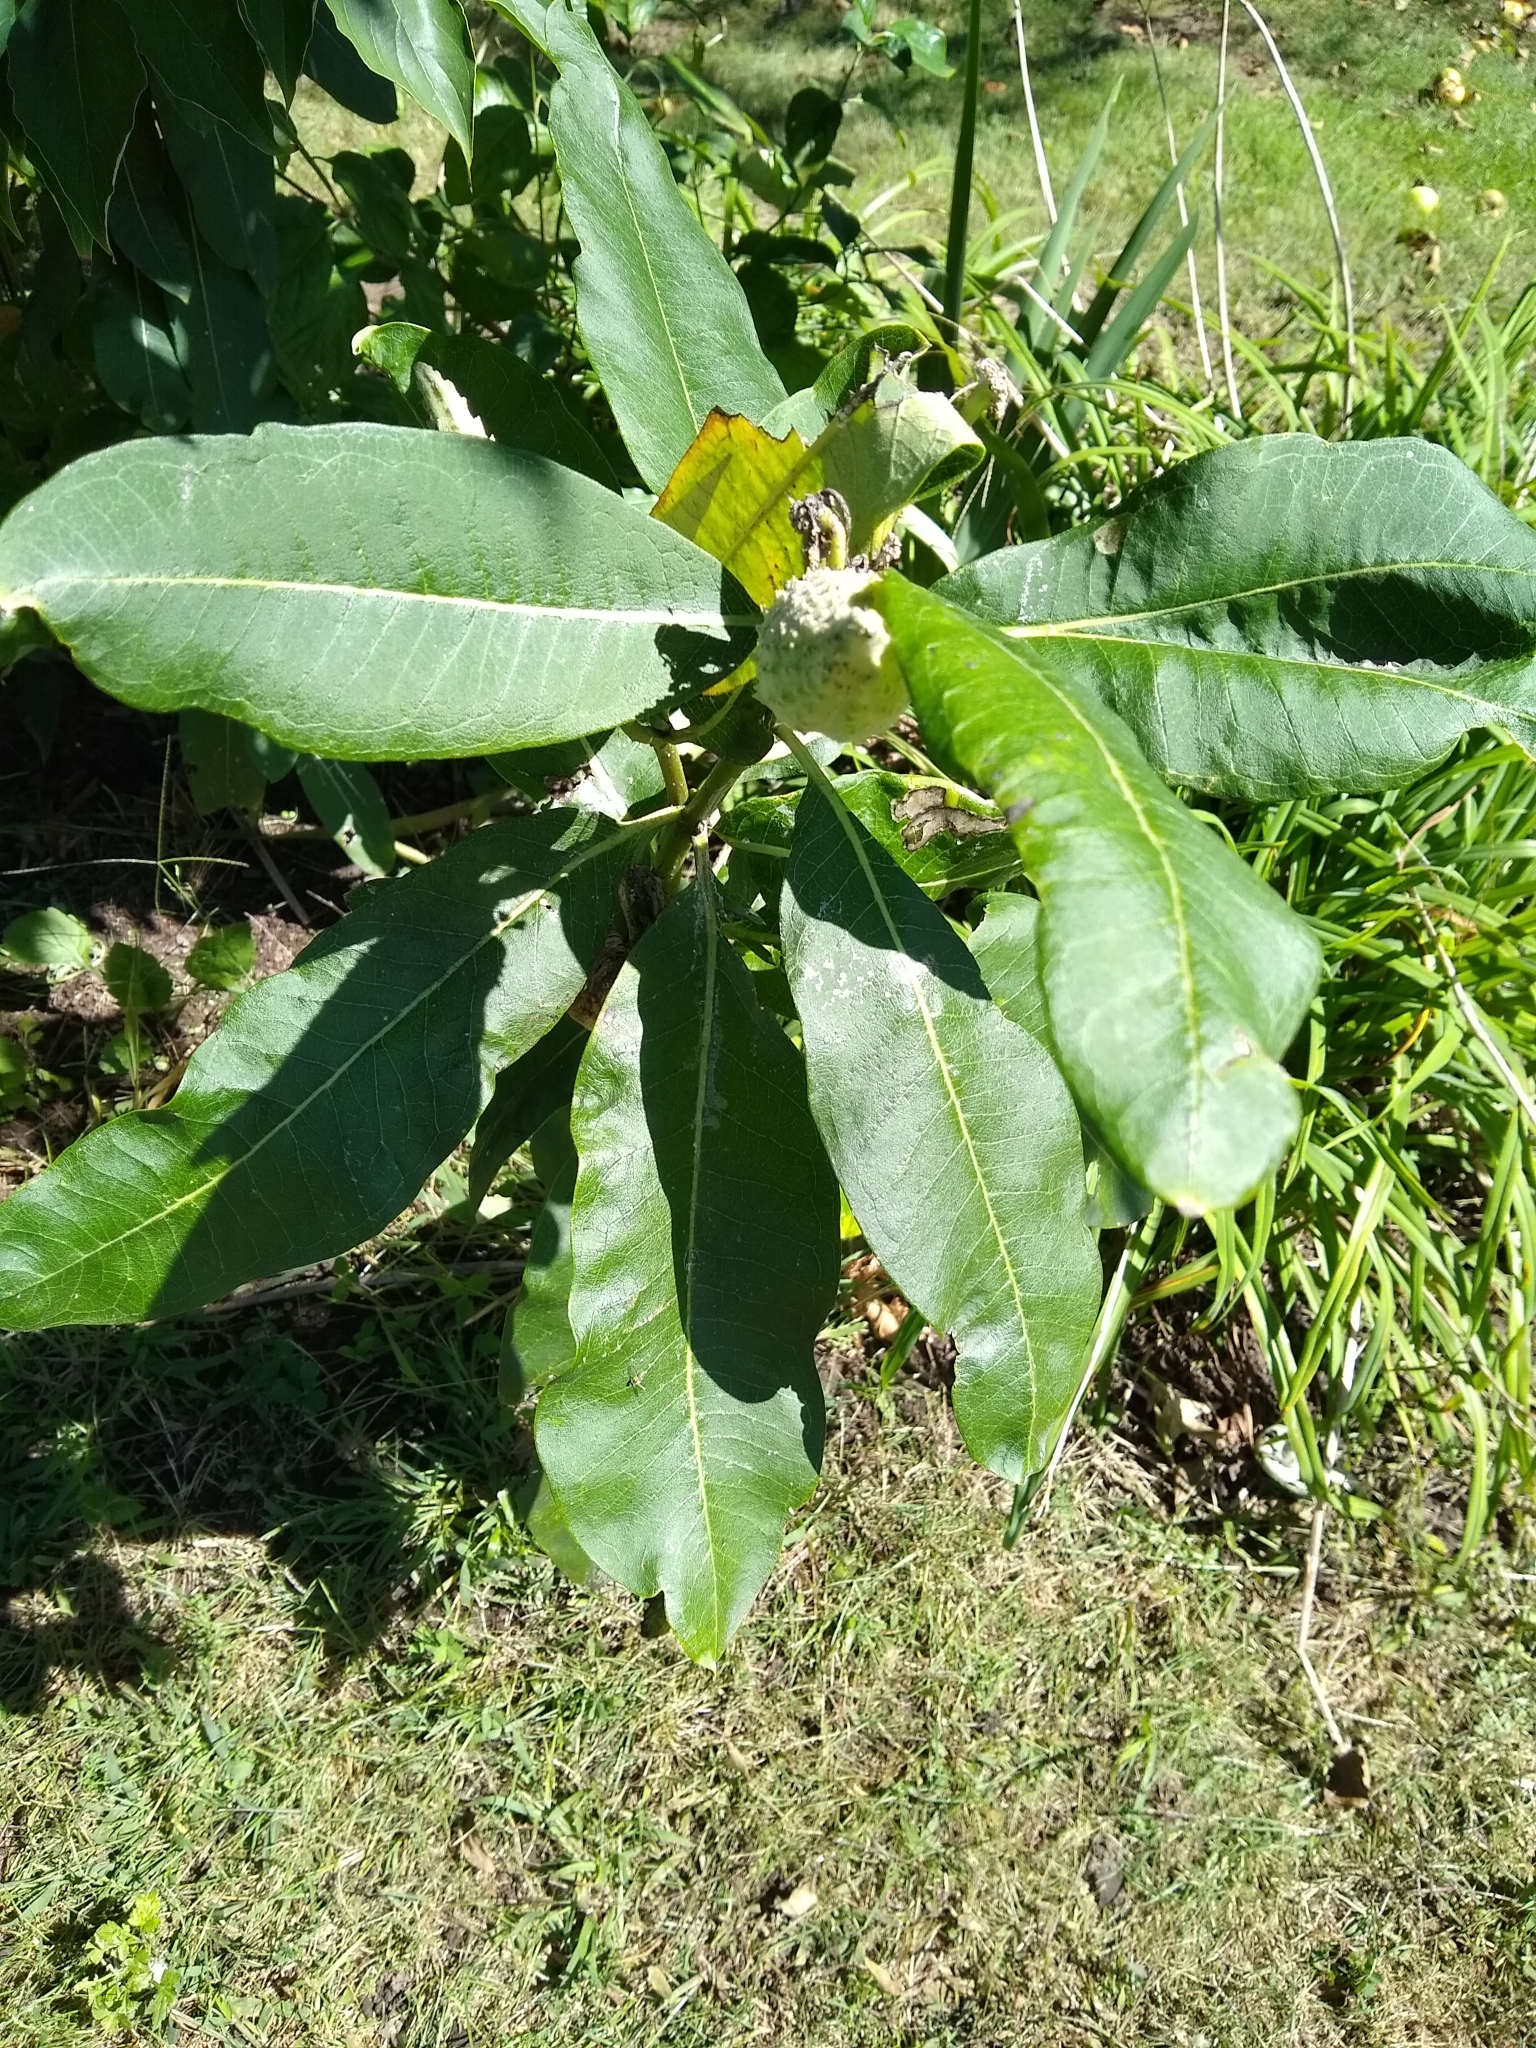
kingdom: Plantae
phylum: Tracheophyta
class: Magnoliopsida
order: Gentianales
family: Apocynaceae
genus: Asclepias
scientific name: Asclepias syriaca
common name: Common milkweed
